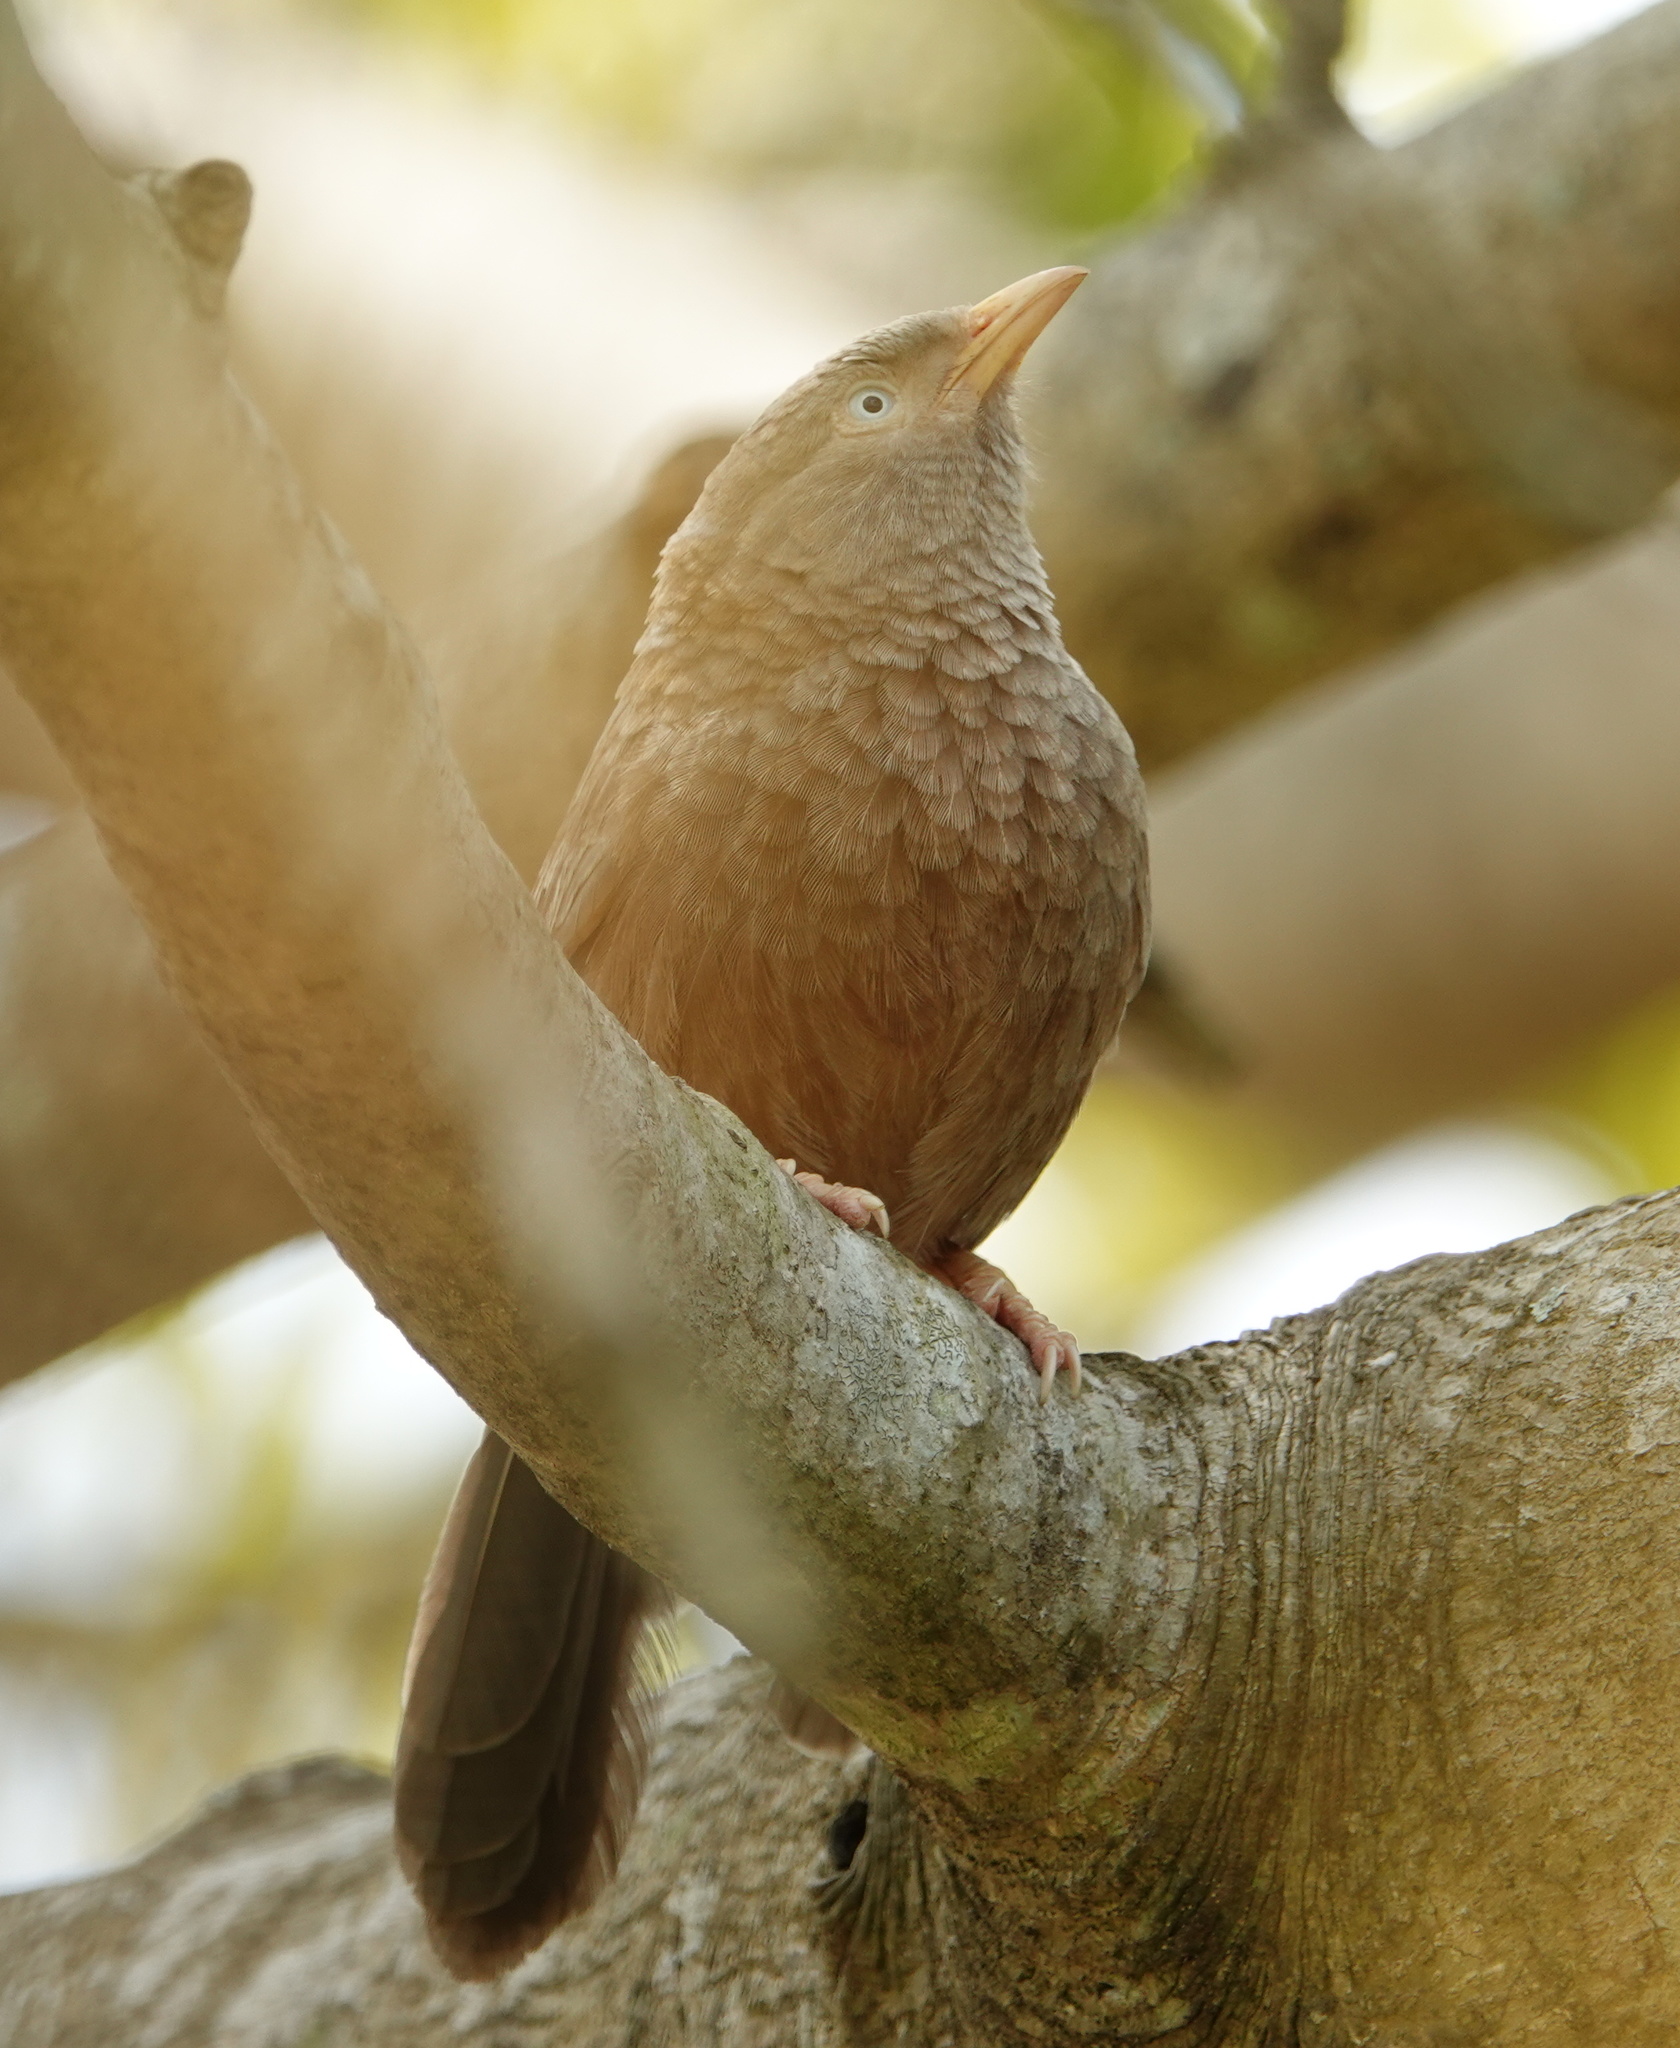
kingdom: Animalia
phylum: Chordata
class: Aves
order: Passeriformes
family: Leiothrichidae
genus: Turdoides
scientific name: Turdoides affinis
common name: Yellow-billed babbler
